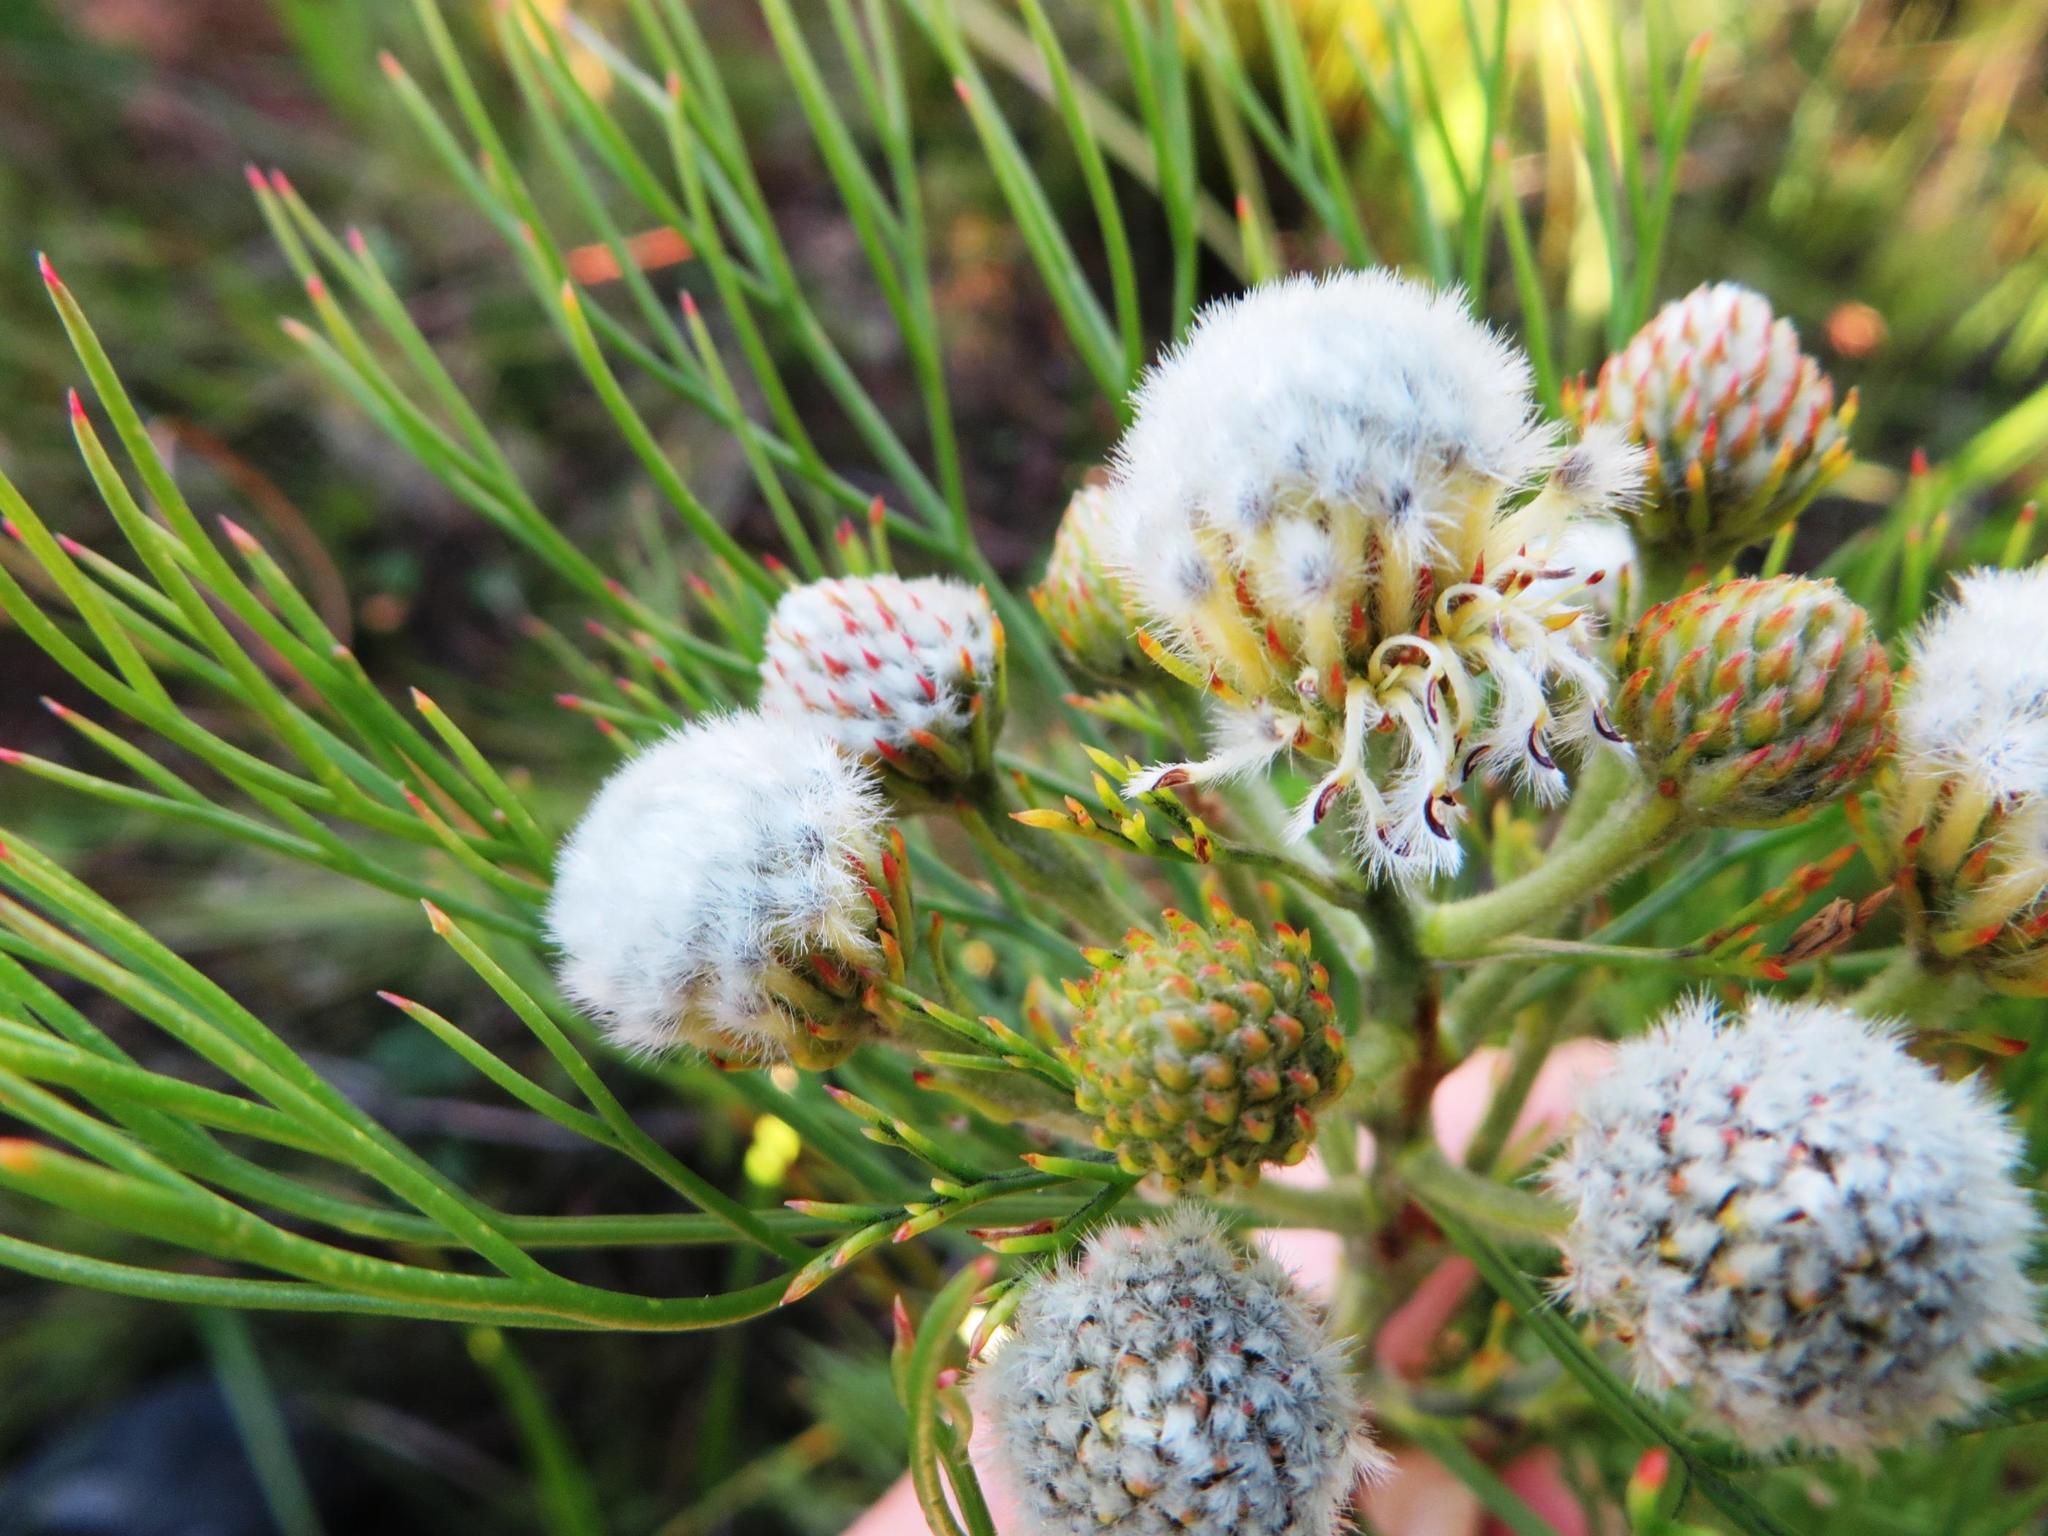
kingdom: Plantae
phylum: Tracheophyta
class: Magnoliopsida
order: Proteales
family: Proteaceae
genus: Serruria
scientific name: Serruria kraussii
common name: Snowball spiderhead
